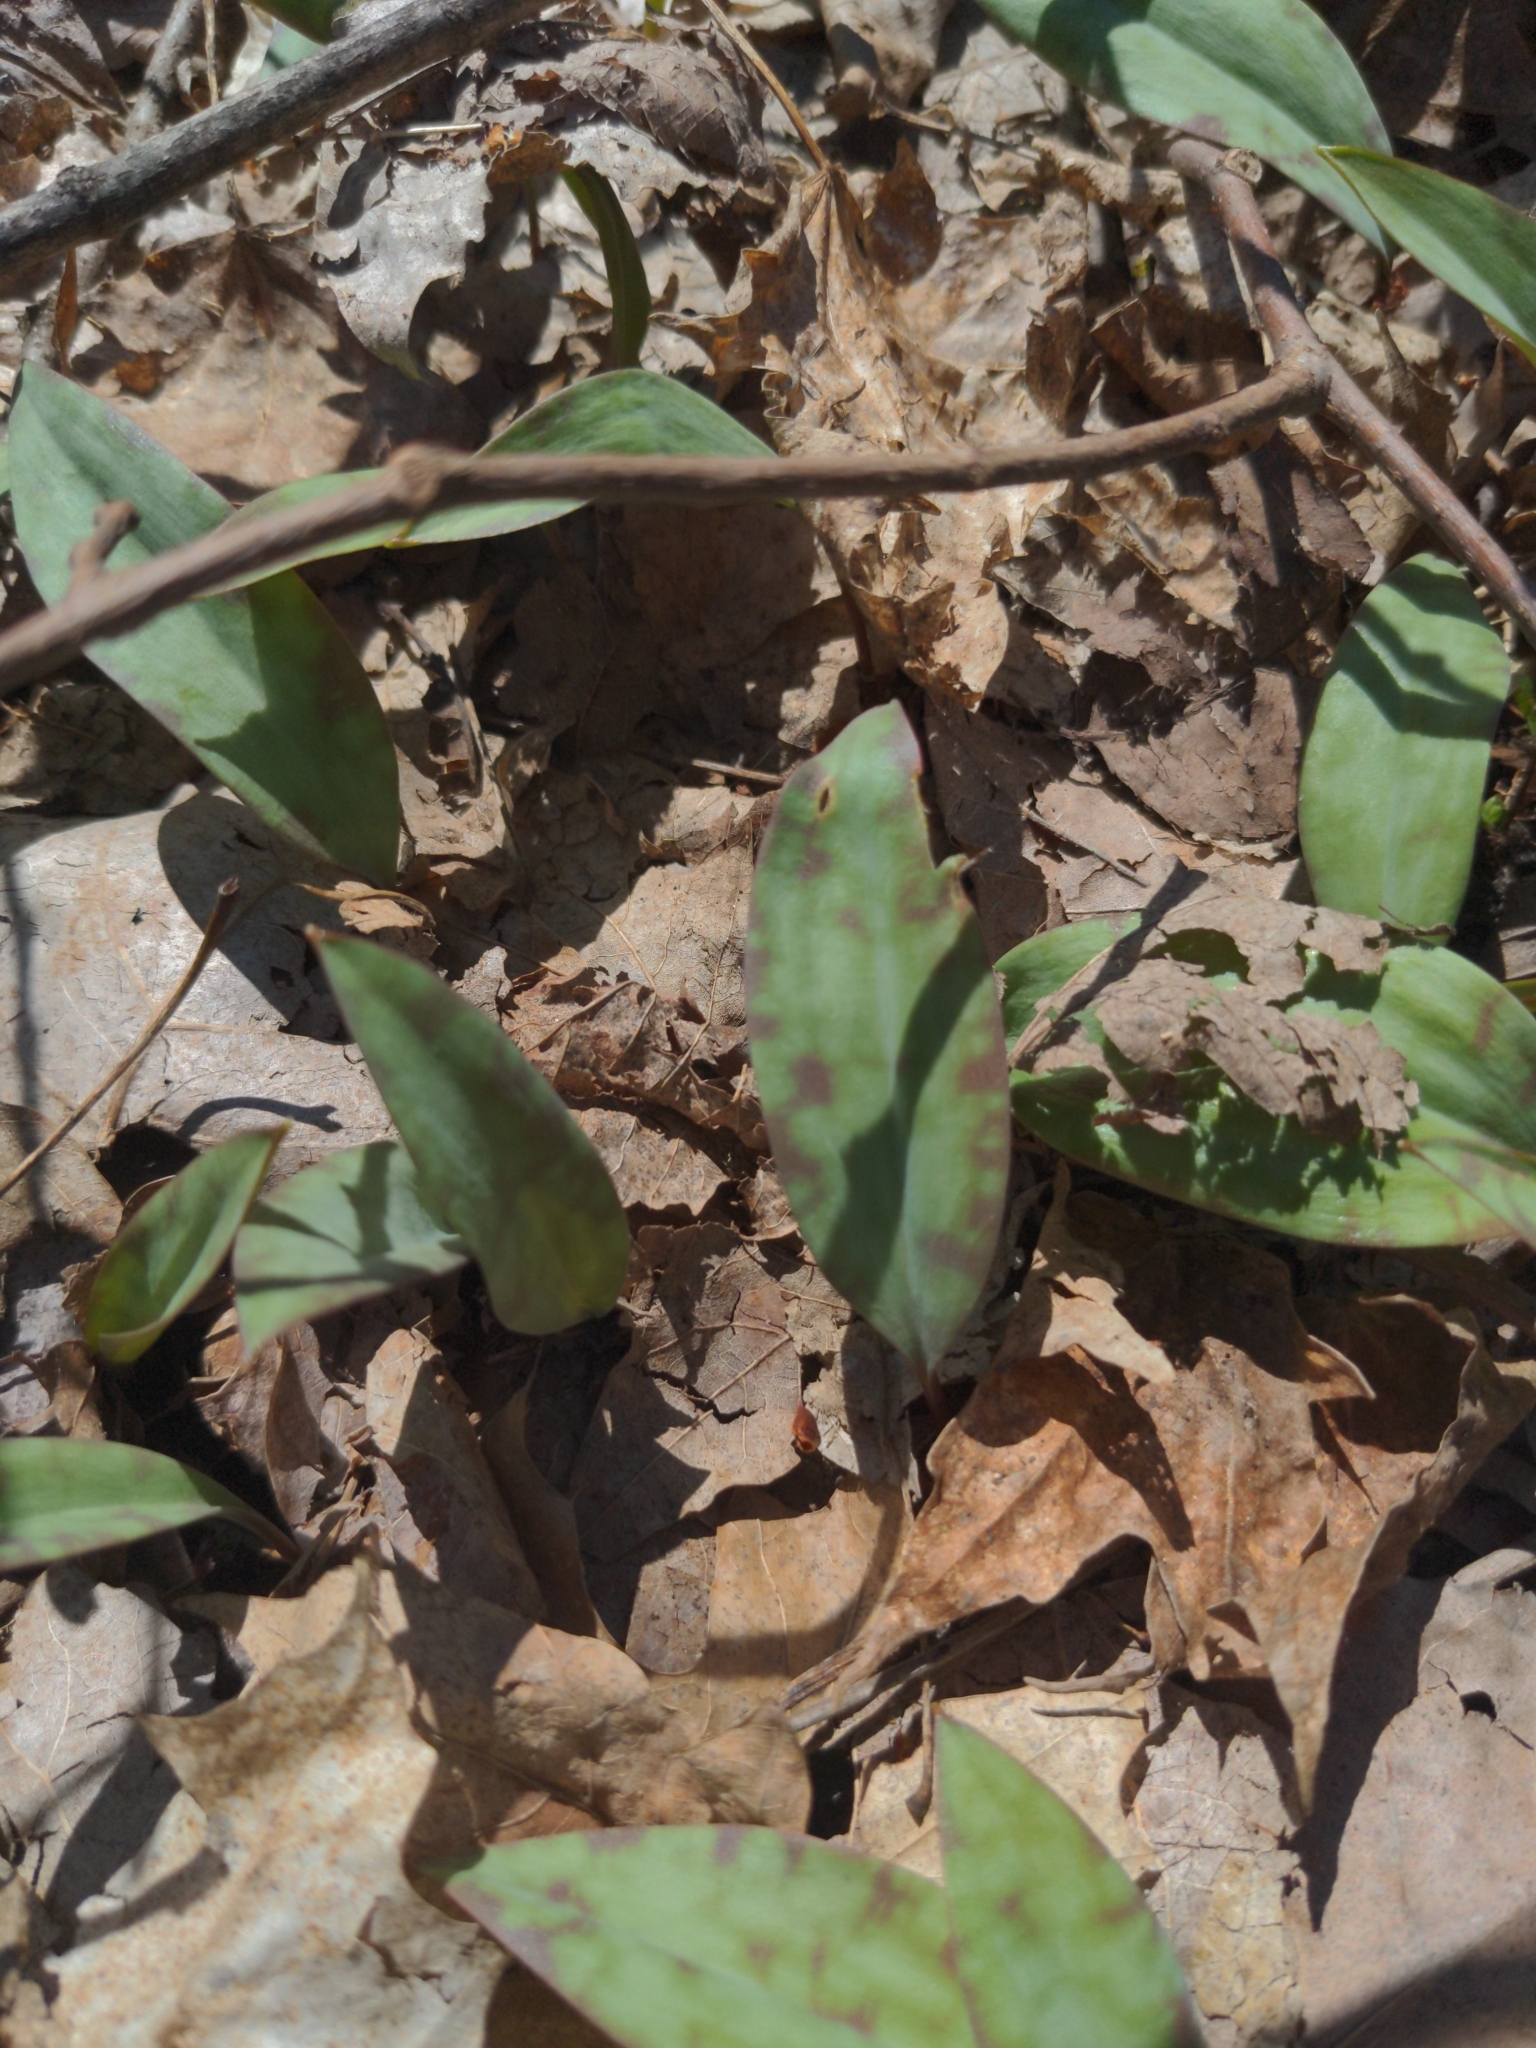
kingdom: Plantae
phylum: Tracheophyta
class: Liliopsida
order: Liliales
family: Liliaceae
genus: Erythronium
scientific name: Erythronium
